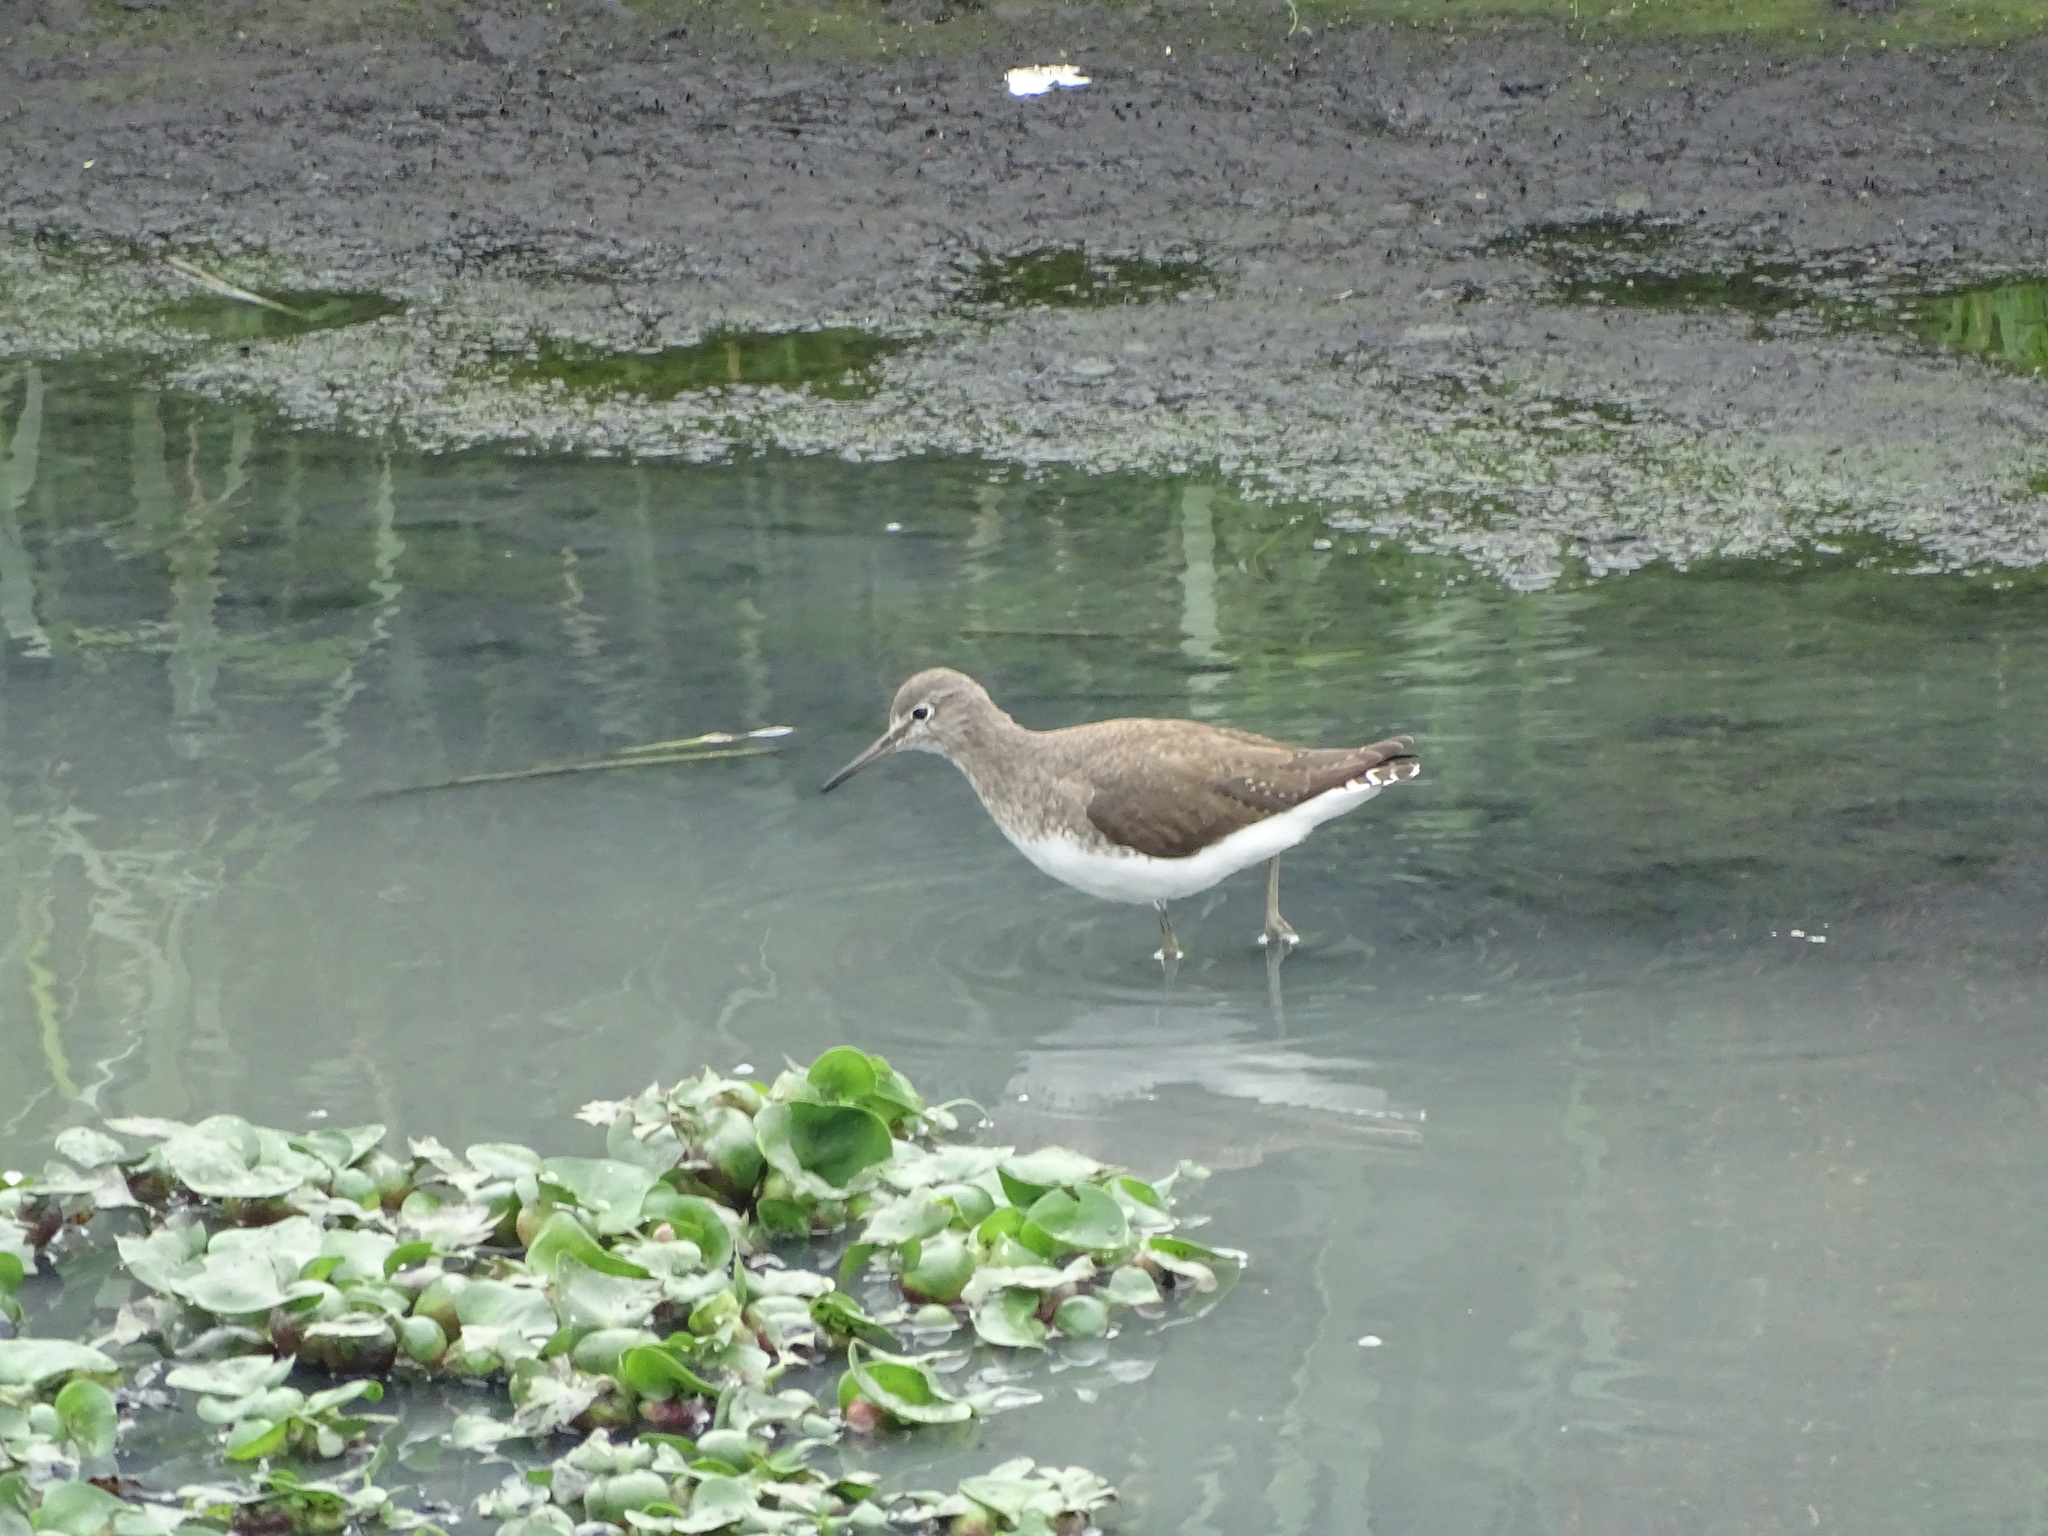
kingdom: Animalia
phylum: Chordata
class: Aves
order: Charadriiformes
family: Scolopacidae
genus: Tringa
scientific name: Tringa ochropus
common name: Green sandpiper
